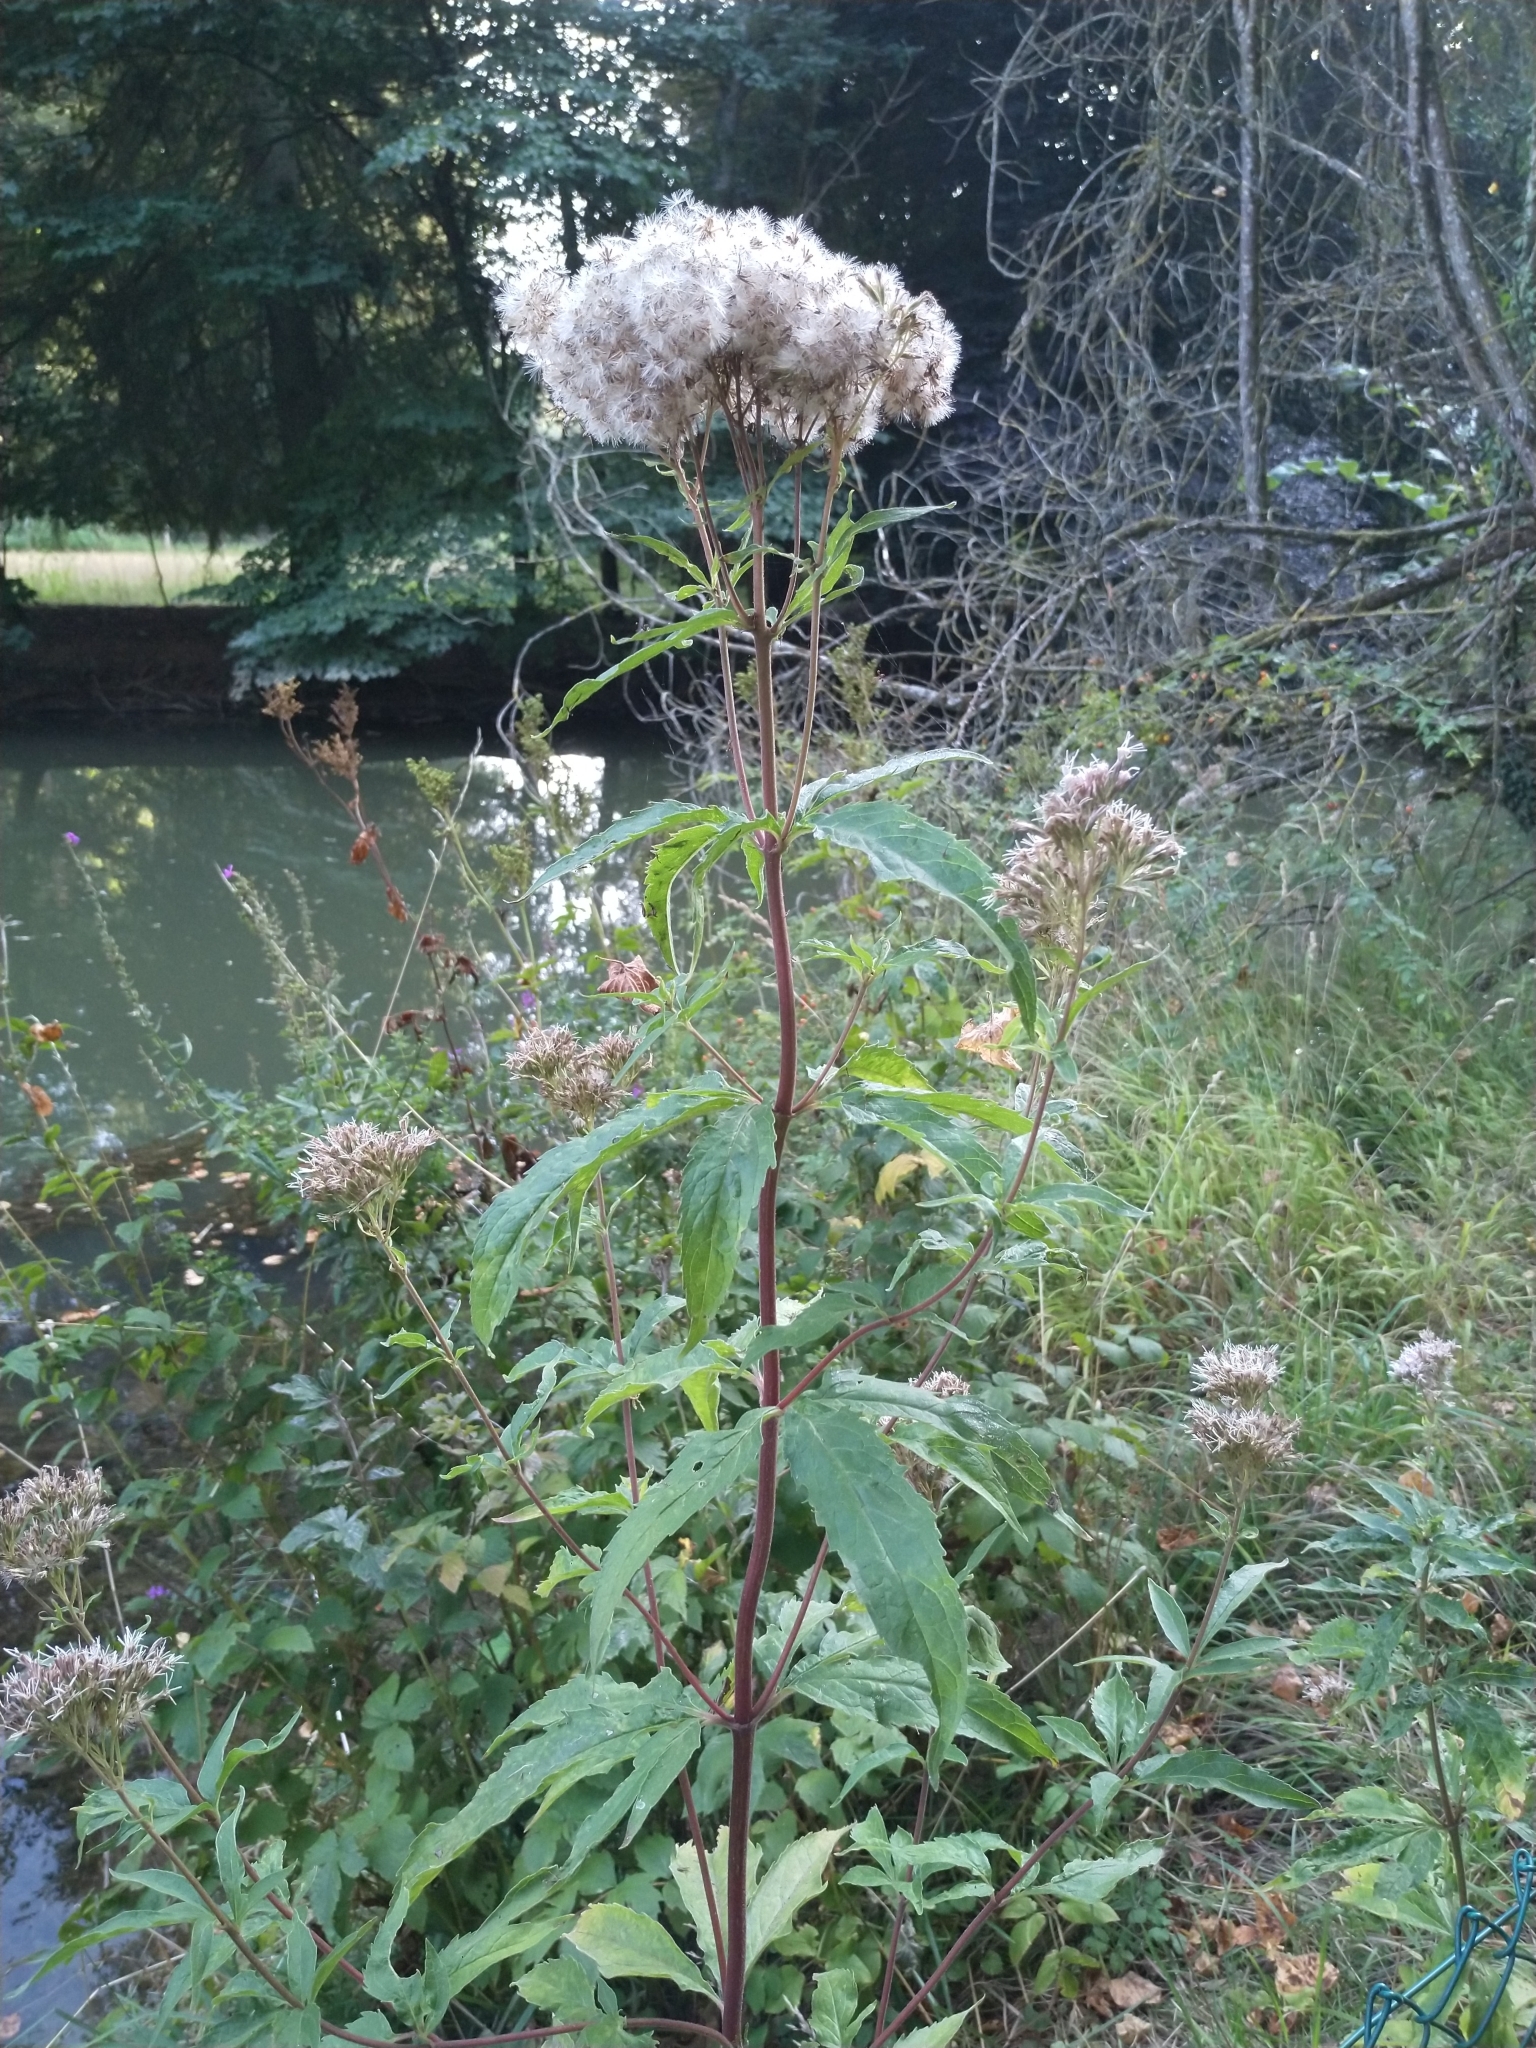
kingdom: Plantae
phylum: Tracheophyta
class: Magnoliopsida
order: Asterales
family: Asteraceae
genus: Eupatorium
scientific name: Eupatorium cannabinum
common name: Hemp-agrimony
